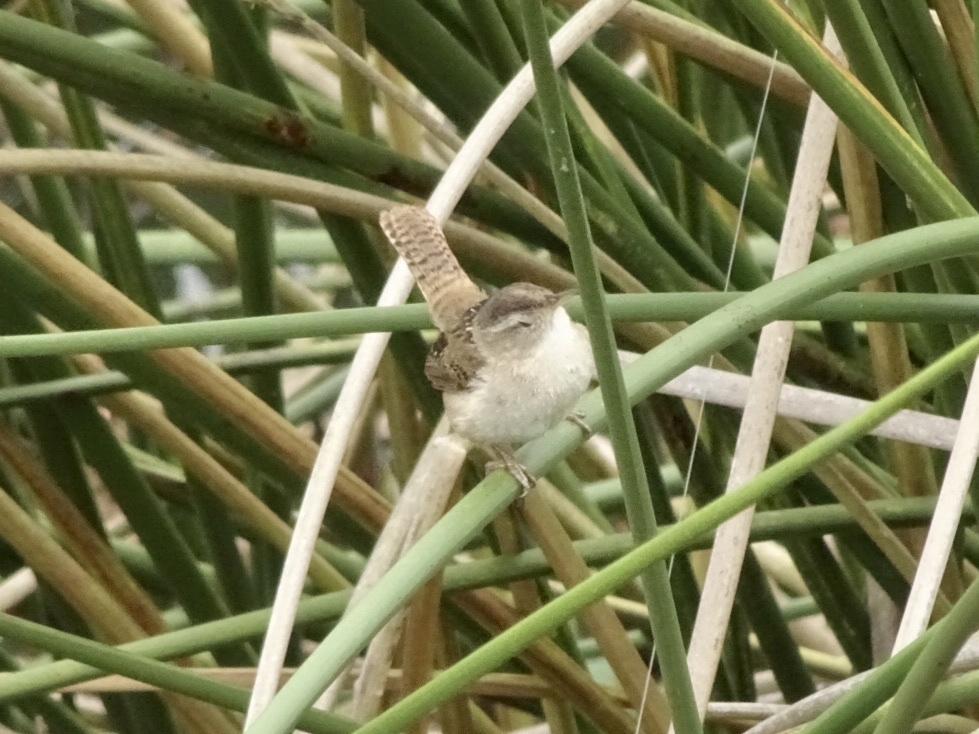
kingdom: Animalia
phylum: Chordata
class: Aves
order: Passeriformes
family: Troglodytidae
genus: Cistothorus
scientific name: Cistothorus palustris
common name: Marsh wren
